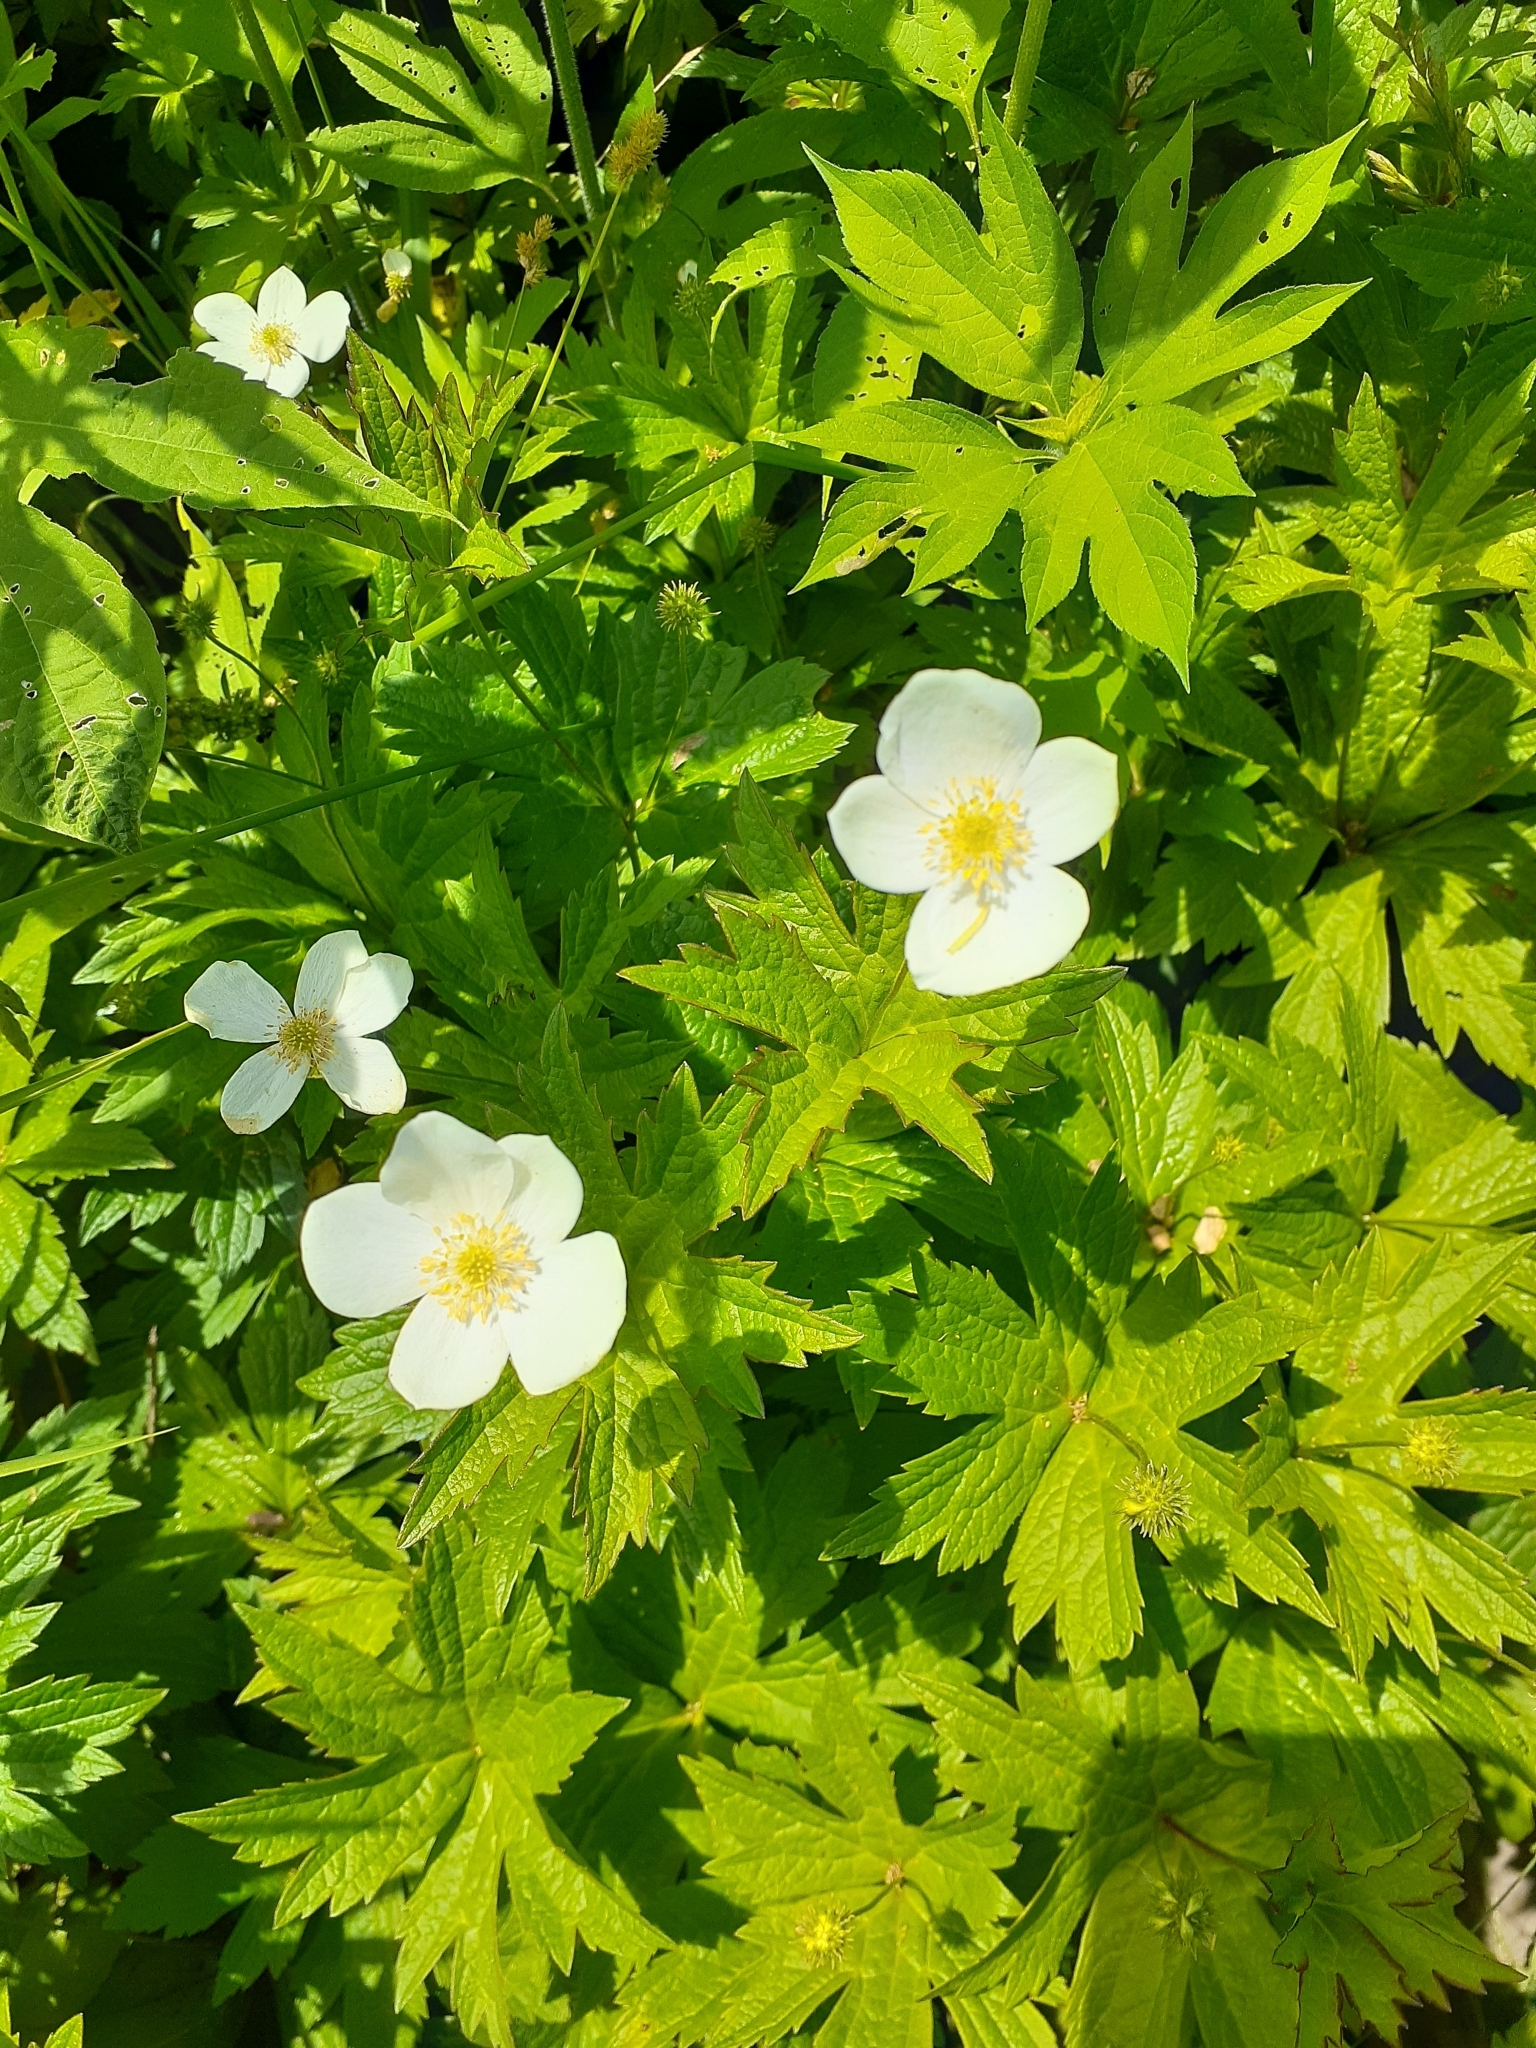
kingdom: Plantae
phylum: Tracheophyta
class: Magnoliopsida
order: Ranunculales
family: Ranunculaceae
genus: Anemonastrum
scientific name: Anemonastrum canadense
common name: Canada anemone
